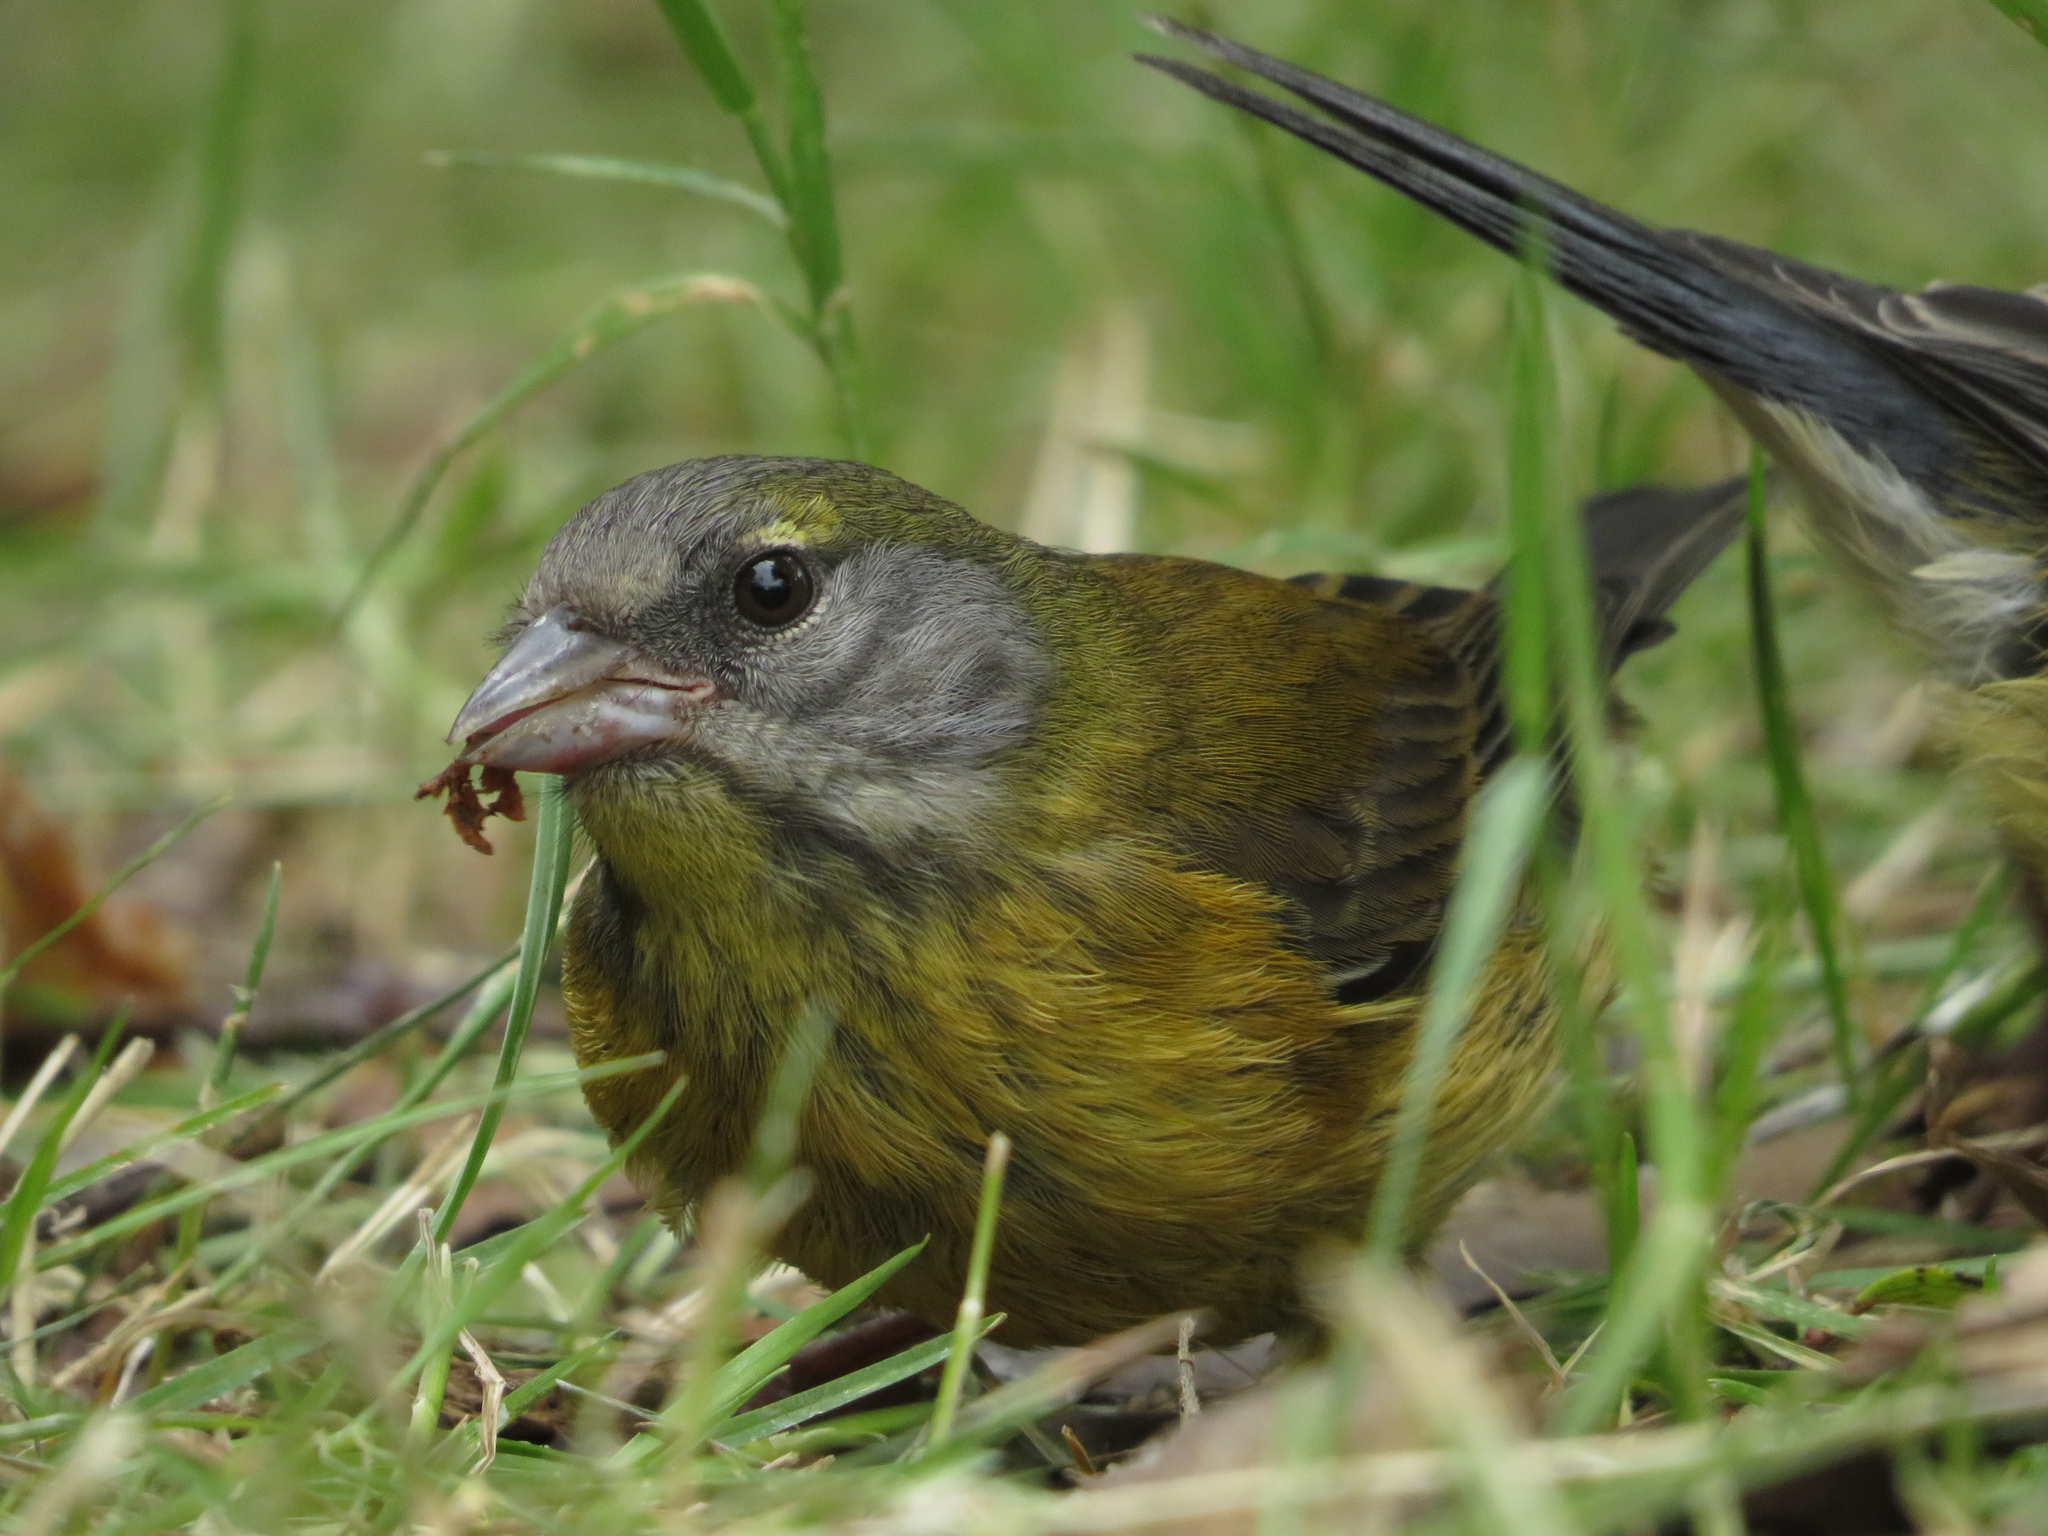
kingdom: Animalia
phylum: Chordata
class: Aves
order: Passeriformes
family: Thraupidae
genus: Phrygilus
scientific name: Phrygilus patagonicus
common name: Patagonian sierra finch
